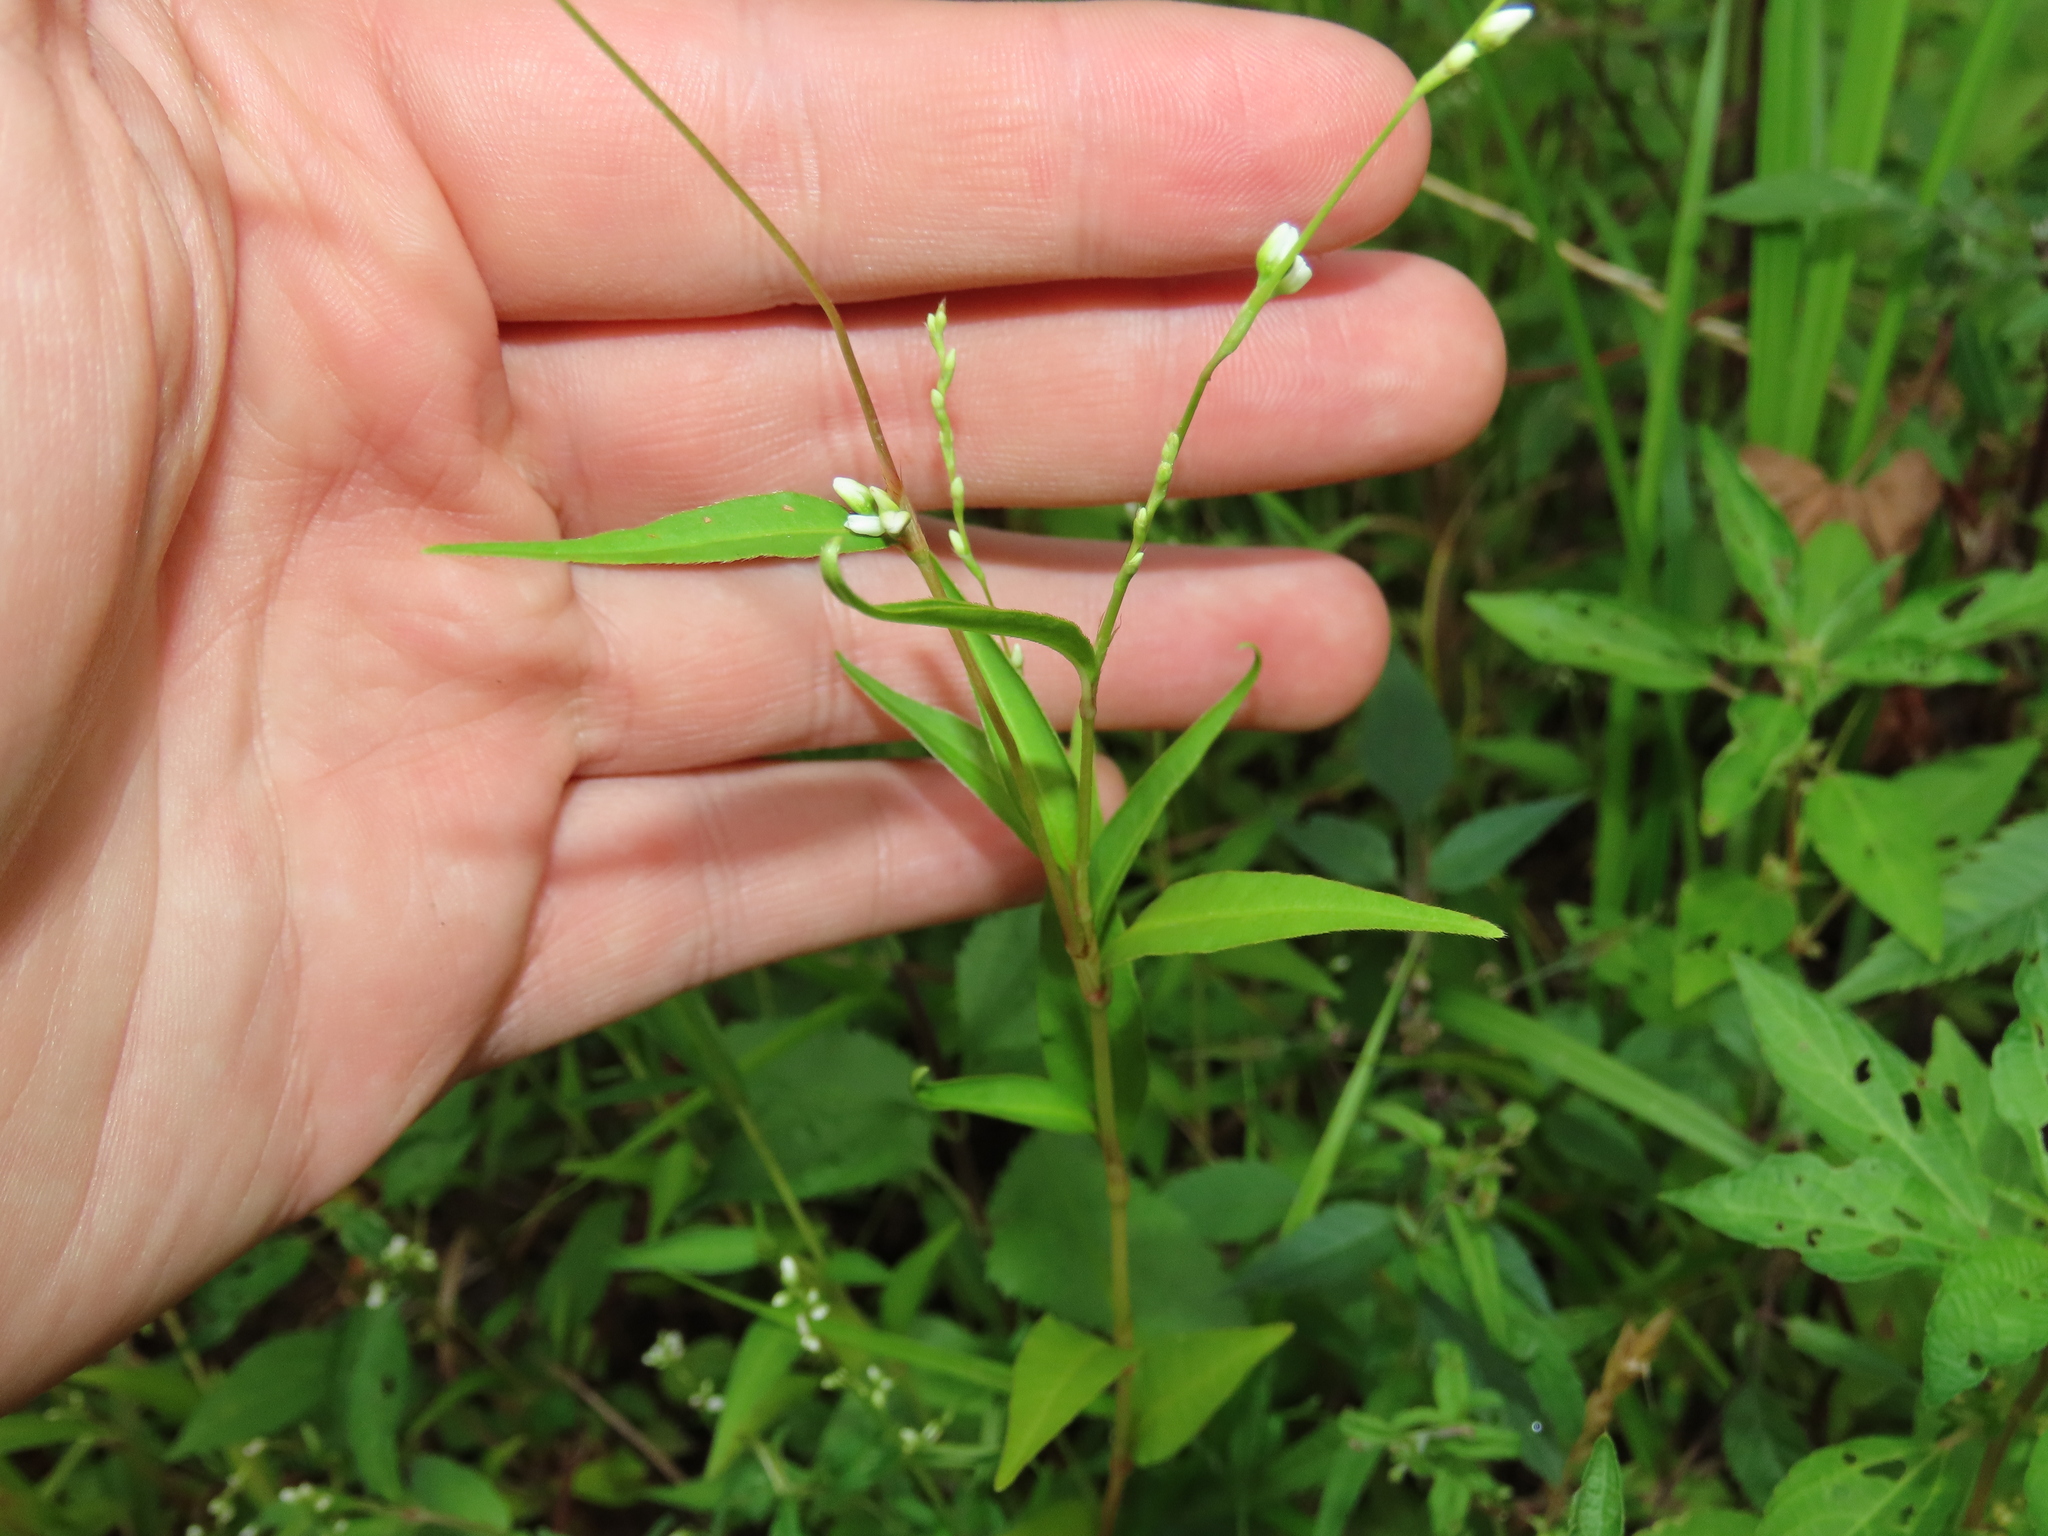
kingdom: Plantae
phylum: Tracheophyta
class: Magnoliopsida
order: Caryophyllales
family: Polygonaceae
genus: Persicaria
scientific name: Persicaria punctata
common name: Dotted smartweed
